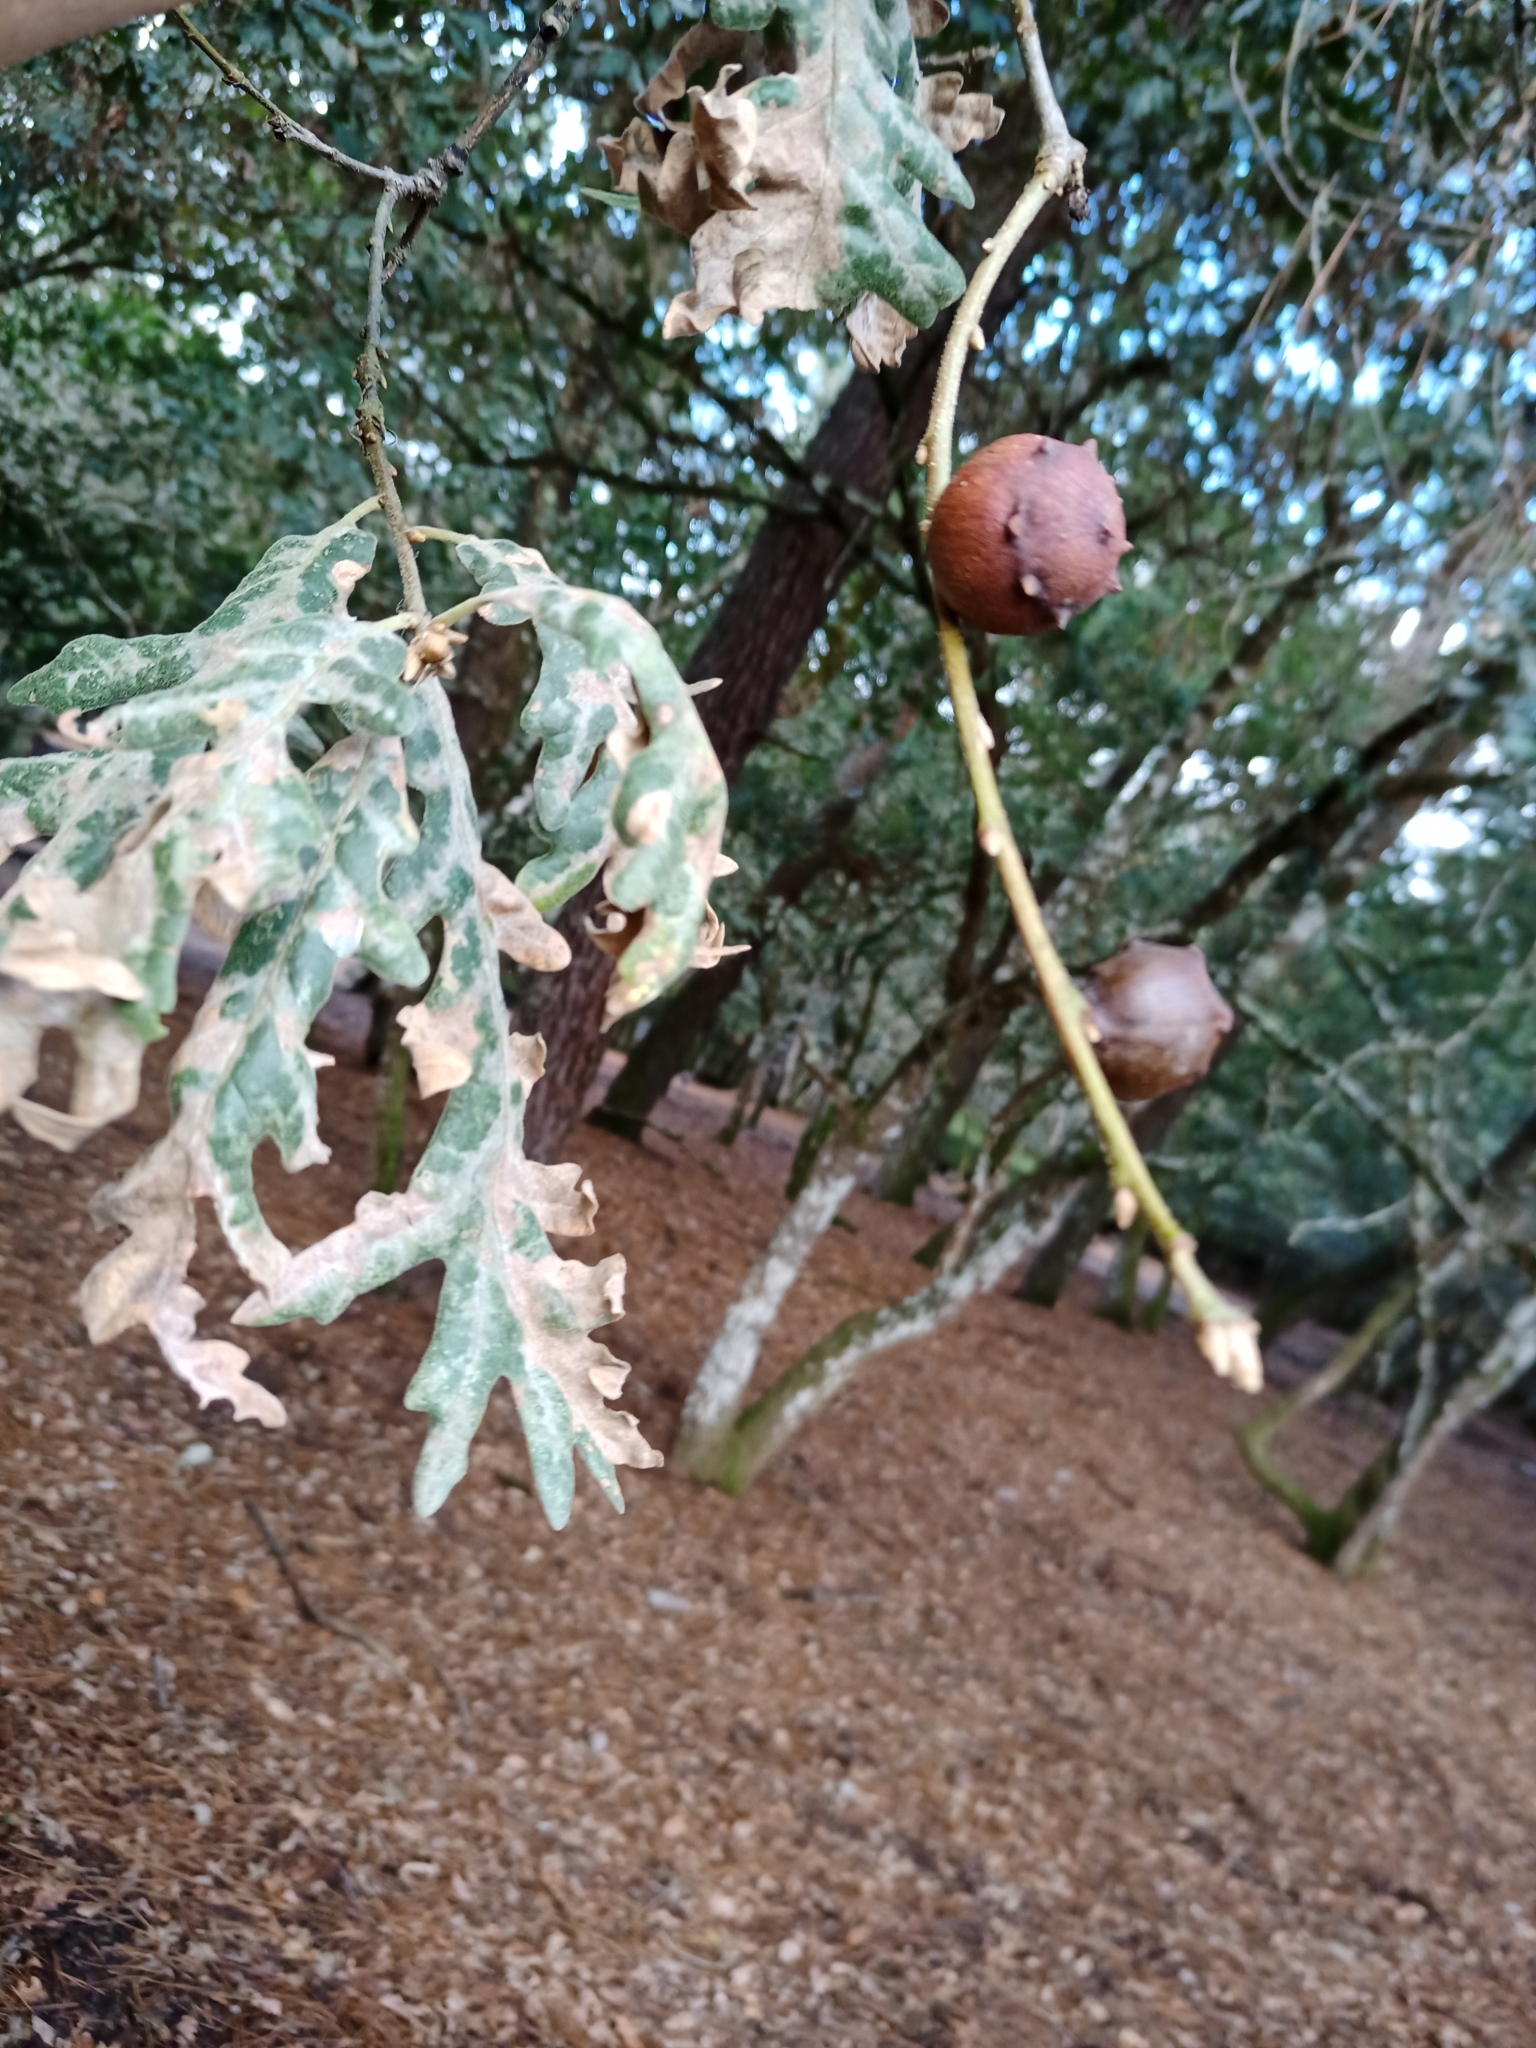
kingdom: Animalia
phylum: Arthropoda
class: Insecta
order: Hymenoptera
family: Cynipidae
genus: Andricus
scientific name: Andricus quercustozae
